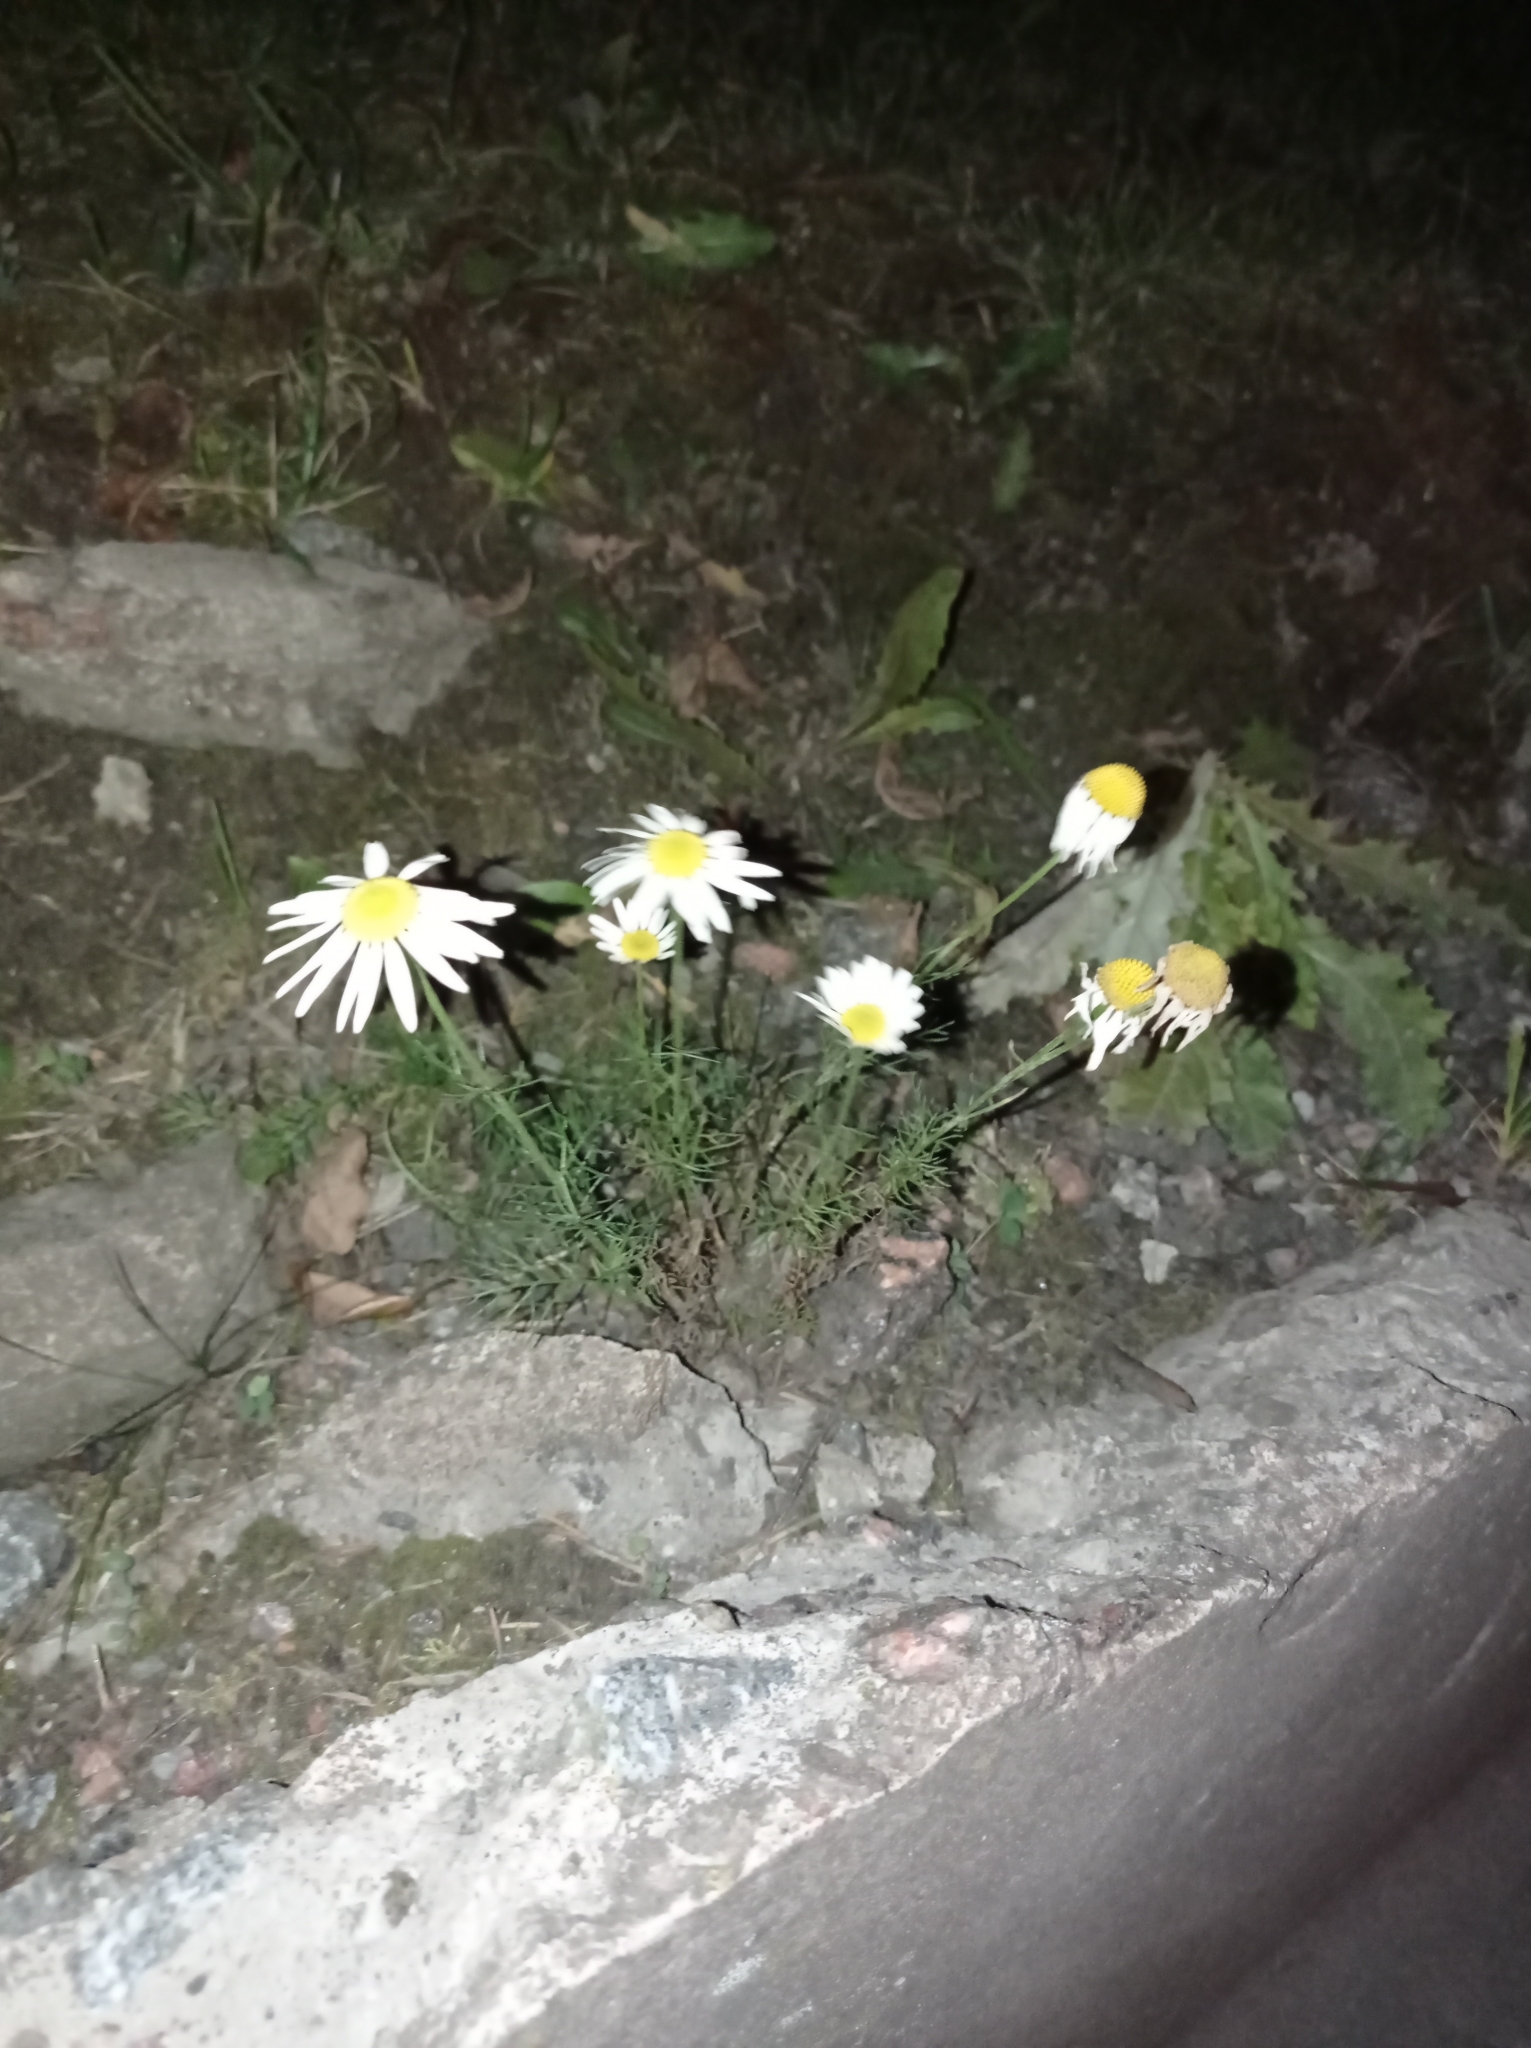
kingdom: Plantae
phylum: Tracheophyta
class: Magnoliopsida
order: Asterales
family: Asteraceae
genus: Tripleurospermum
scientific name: Tripleurospermum inodorum
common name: Scentless mayweed
